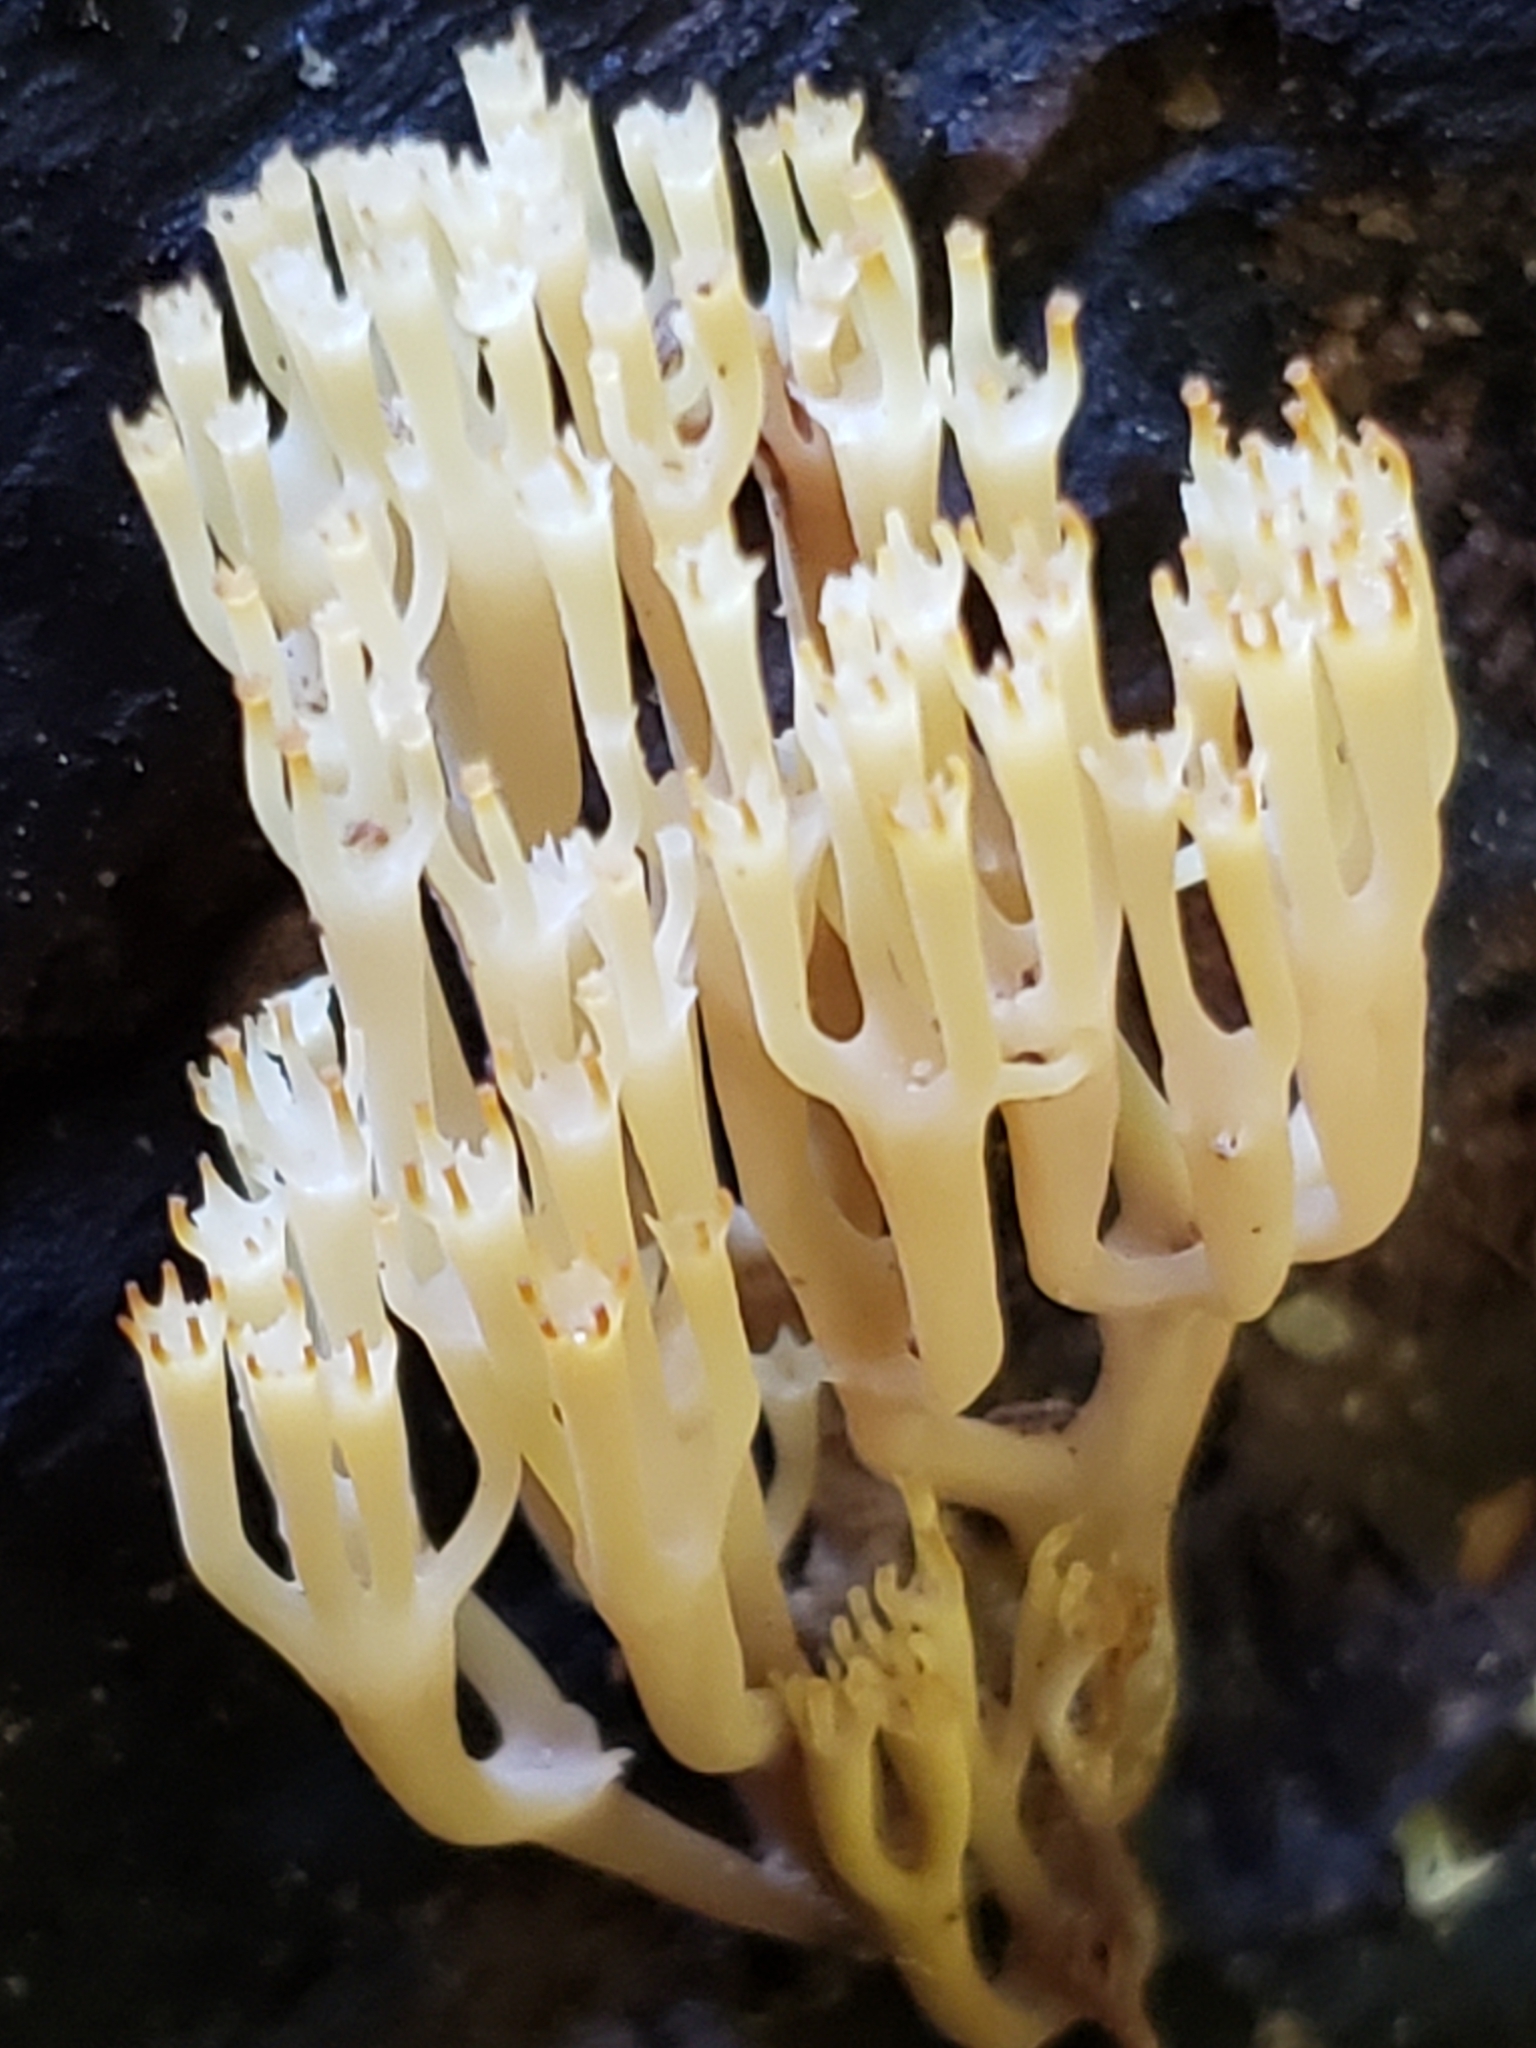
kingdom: Fungi
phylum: Basidiomycota
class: Agaricomycetes
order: Russulales
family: Auriscalpiaceae
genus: Artomyces
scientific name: Artomyces pyxidatus
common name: Crown-tipped coral fungus
